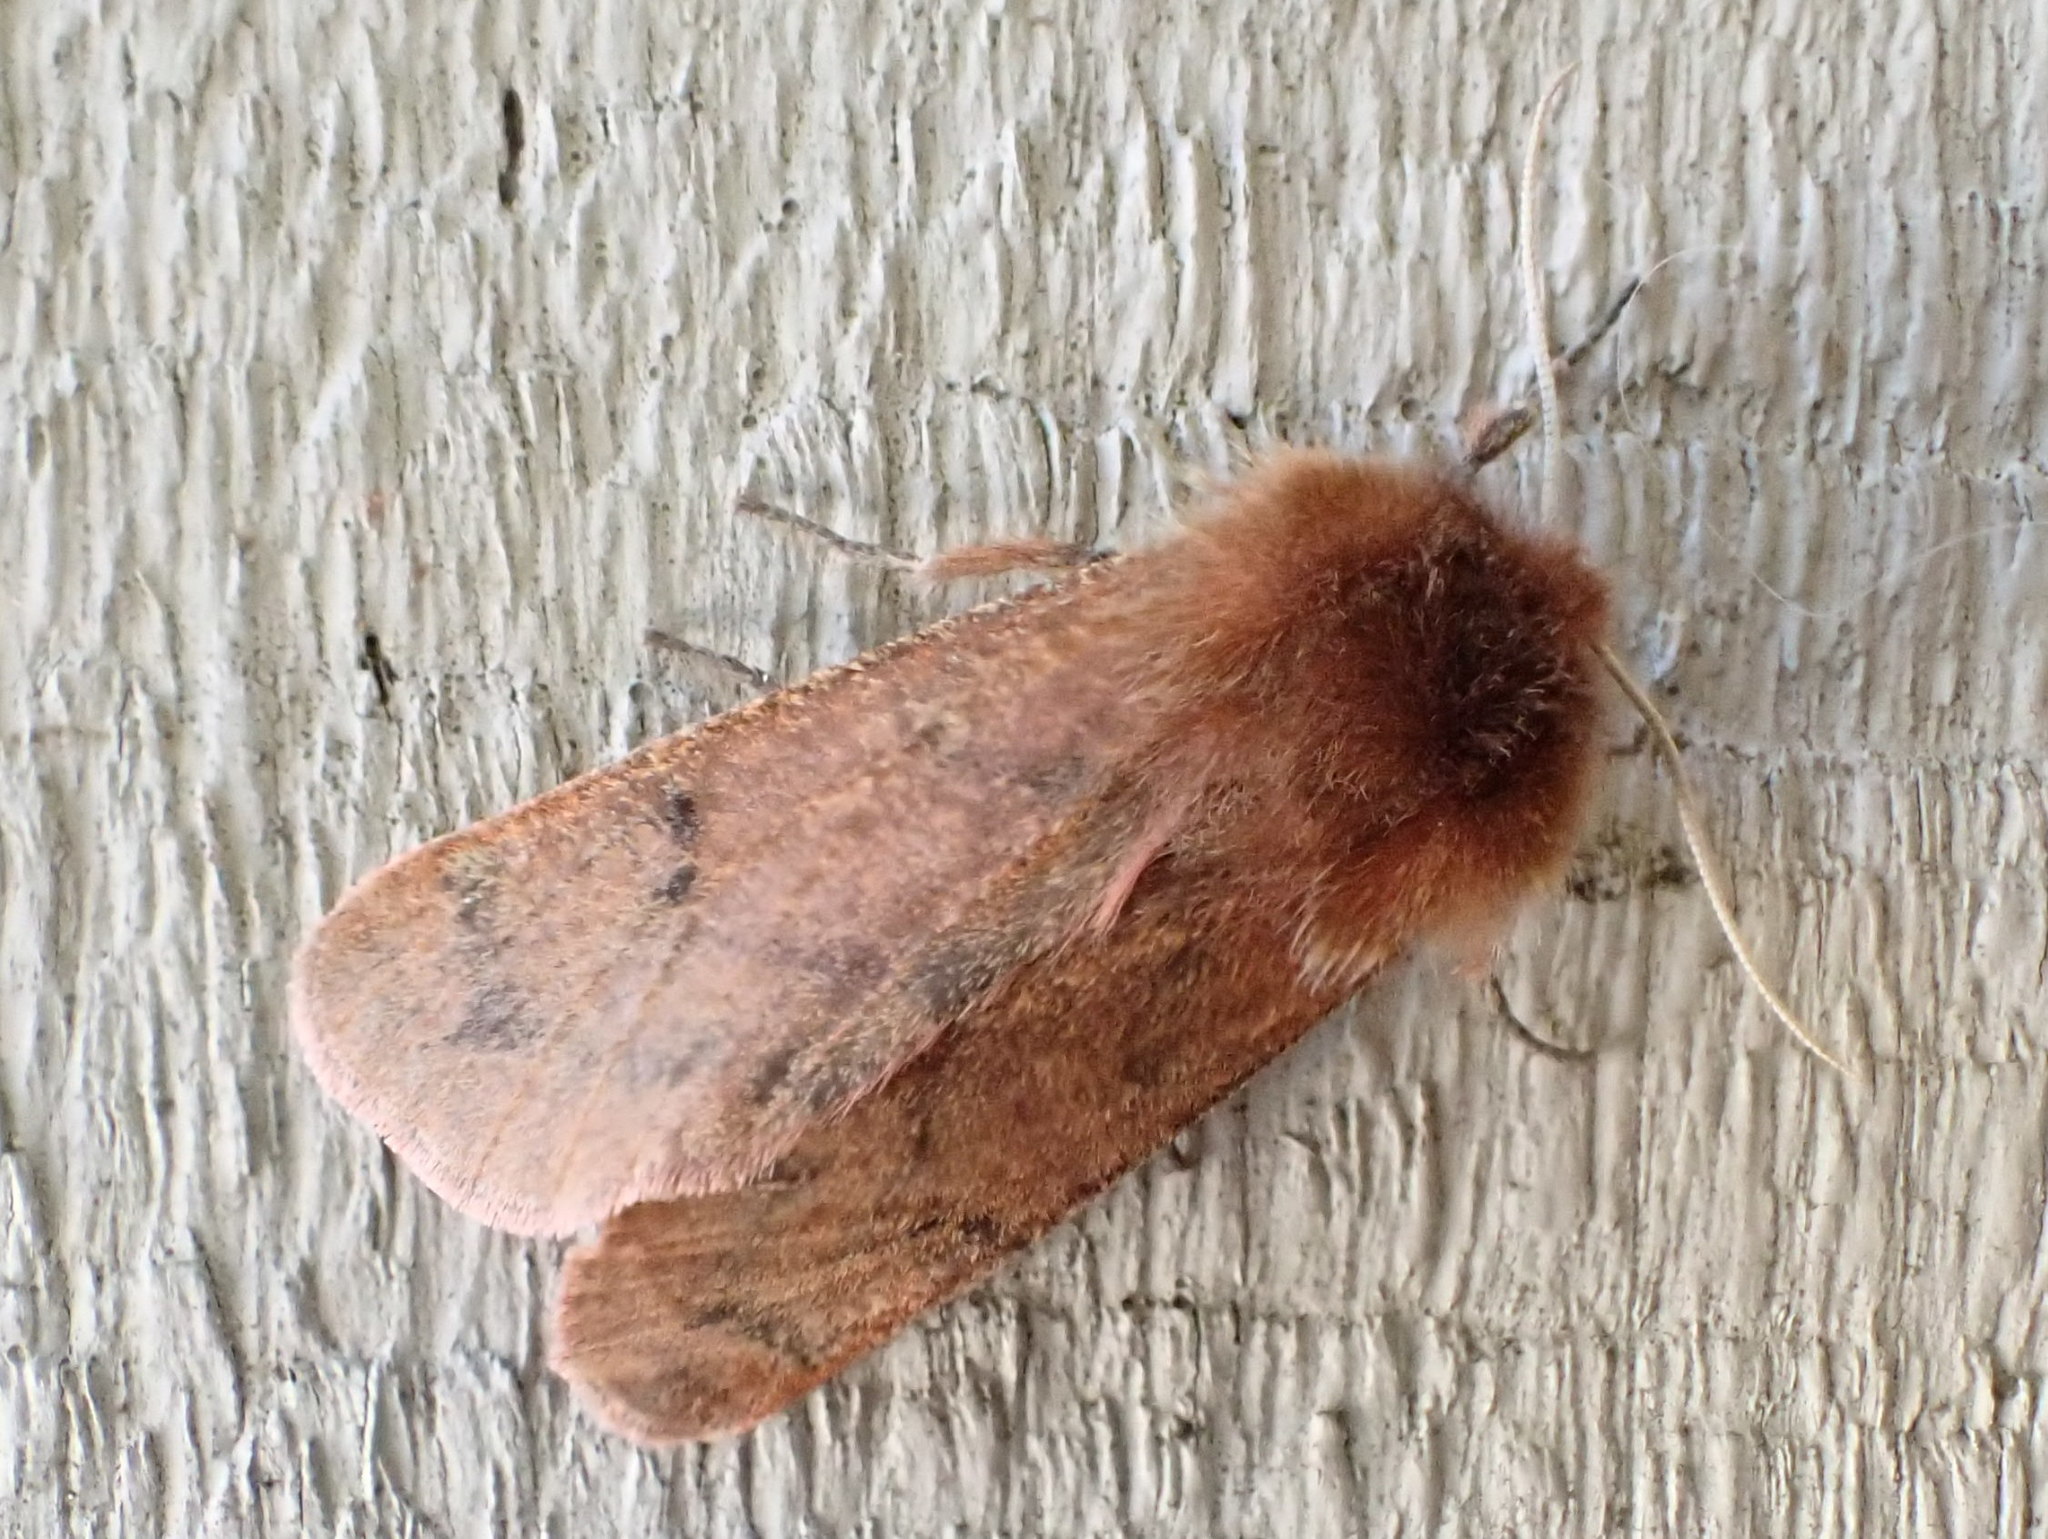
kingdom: Animalia
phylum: Arthropoda
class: Insecta
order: Lepidoptera
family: Erebidae
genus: Phragmatobia
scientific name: Phragmatobia assimilans
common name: Large ruby tiger moth
